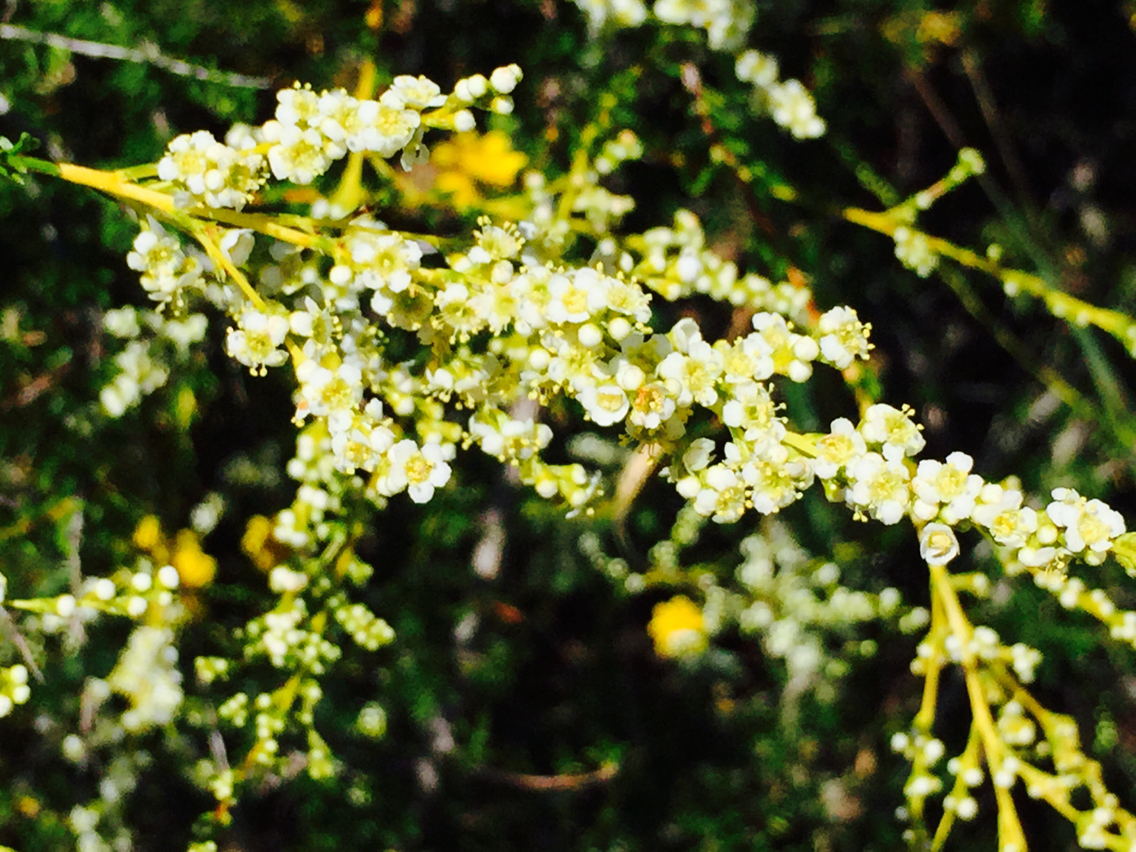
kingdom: Plantae
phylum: Tracheophyta
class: Magnoliopsida
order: Rosales
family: Rosaceae
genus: Adenostoma
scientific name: Adenostoma fasciculatum
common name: Chamise
